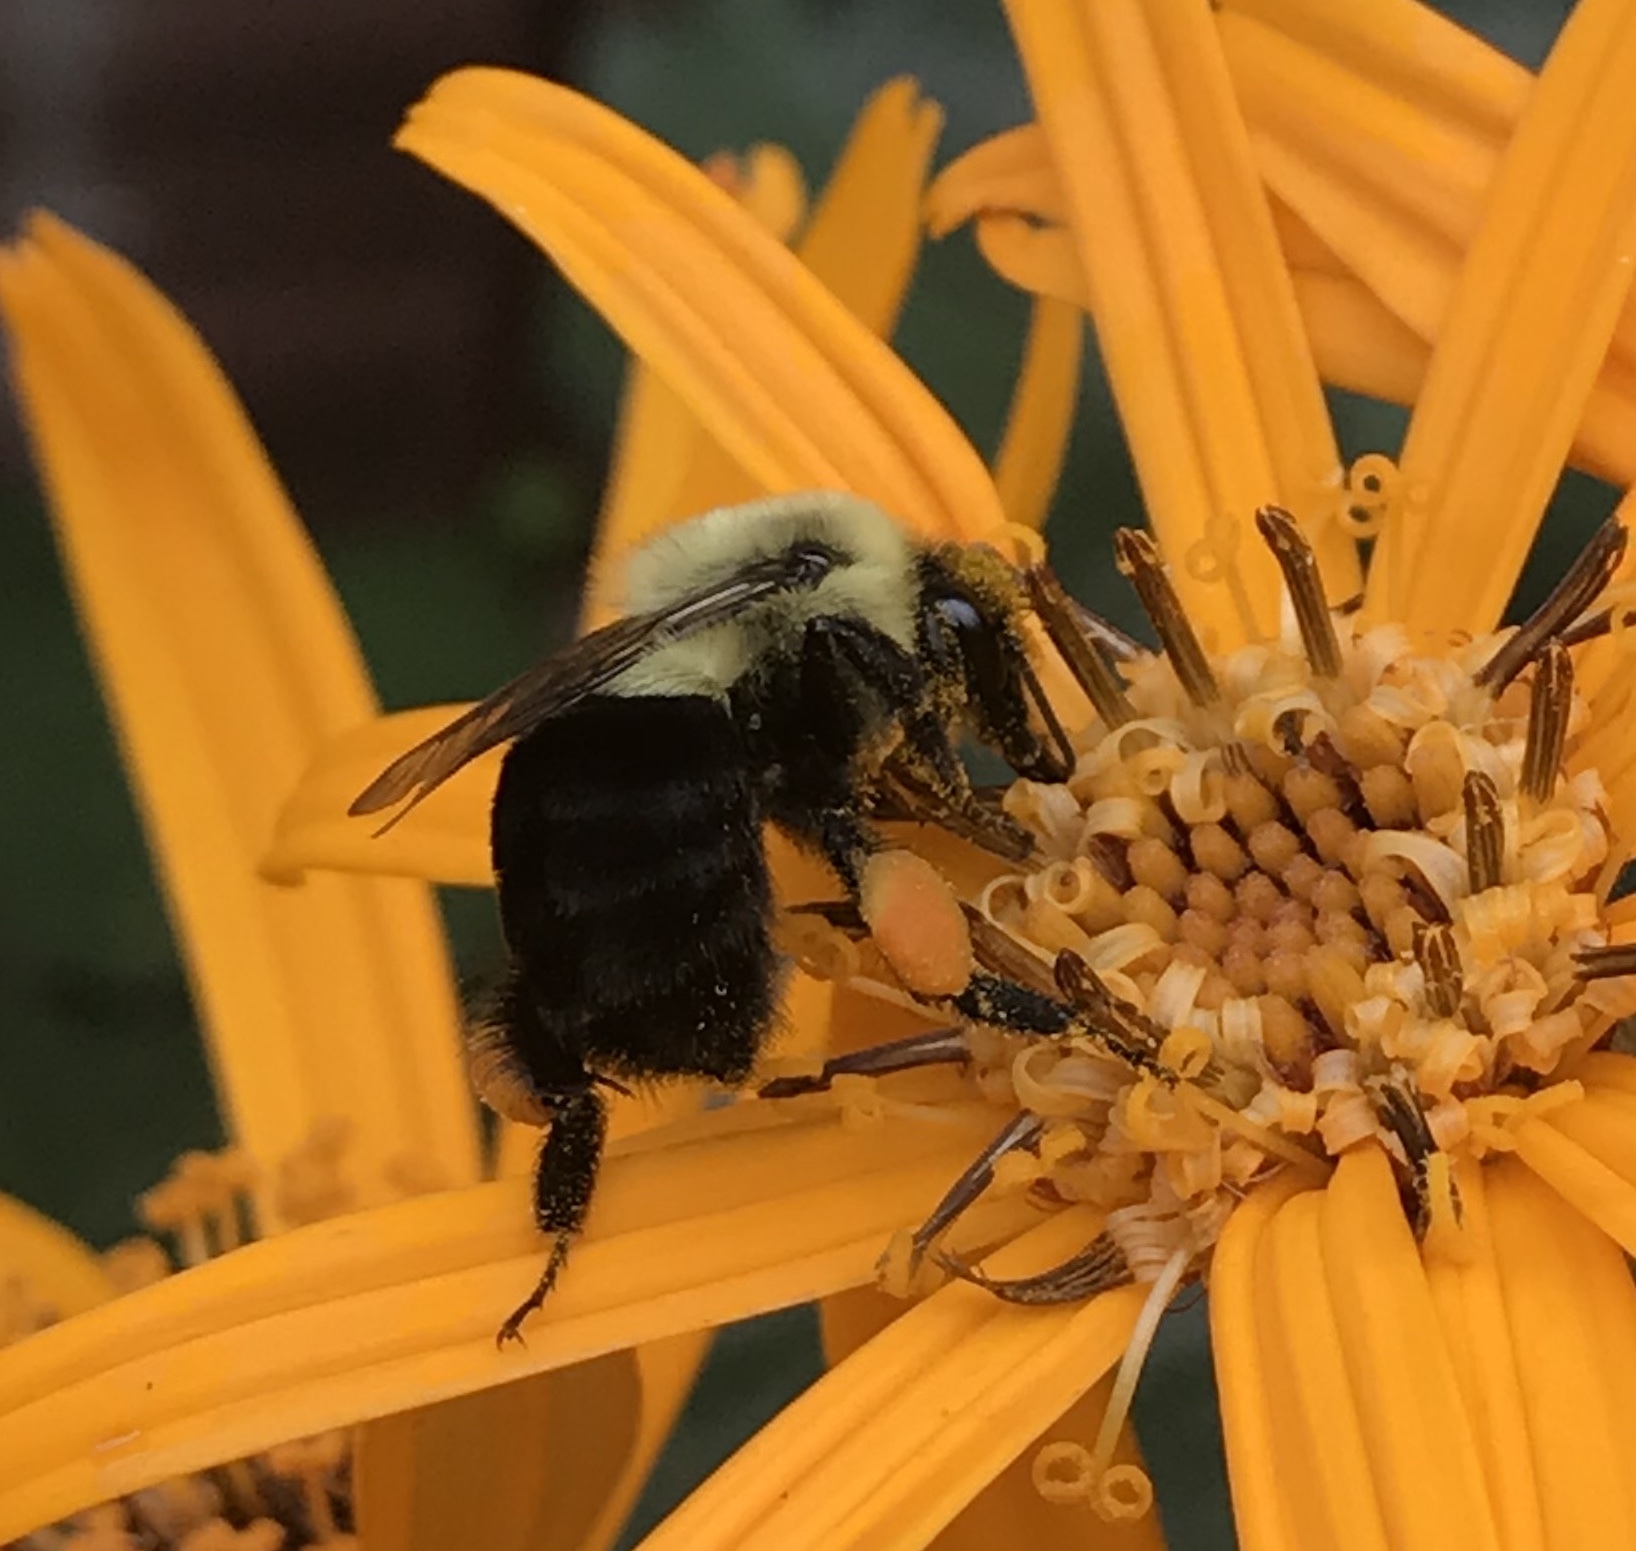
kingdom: Animalia
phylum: Arthropoda
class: Insecta
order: Hymenoptera
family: Apidae
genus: Bombus
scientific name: Bombus impatiens
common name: Common eastern bumble bee
